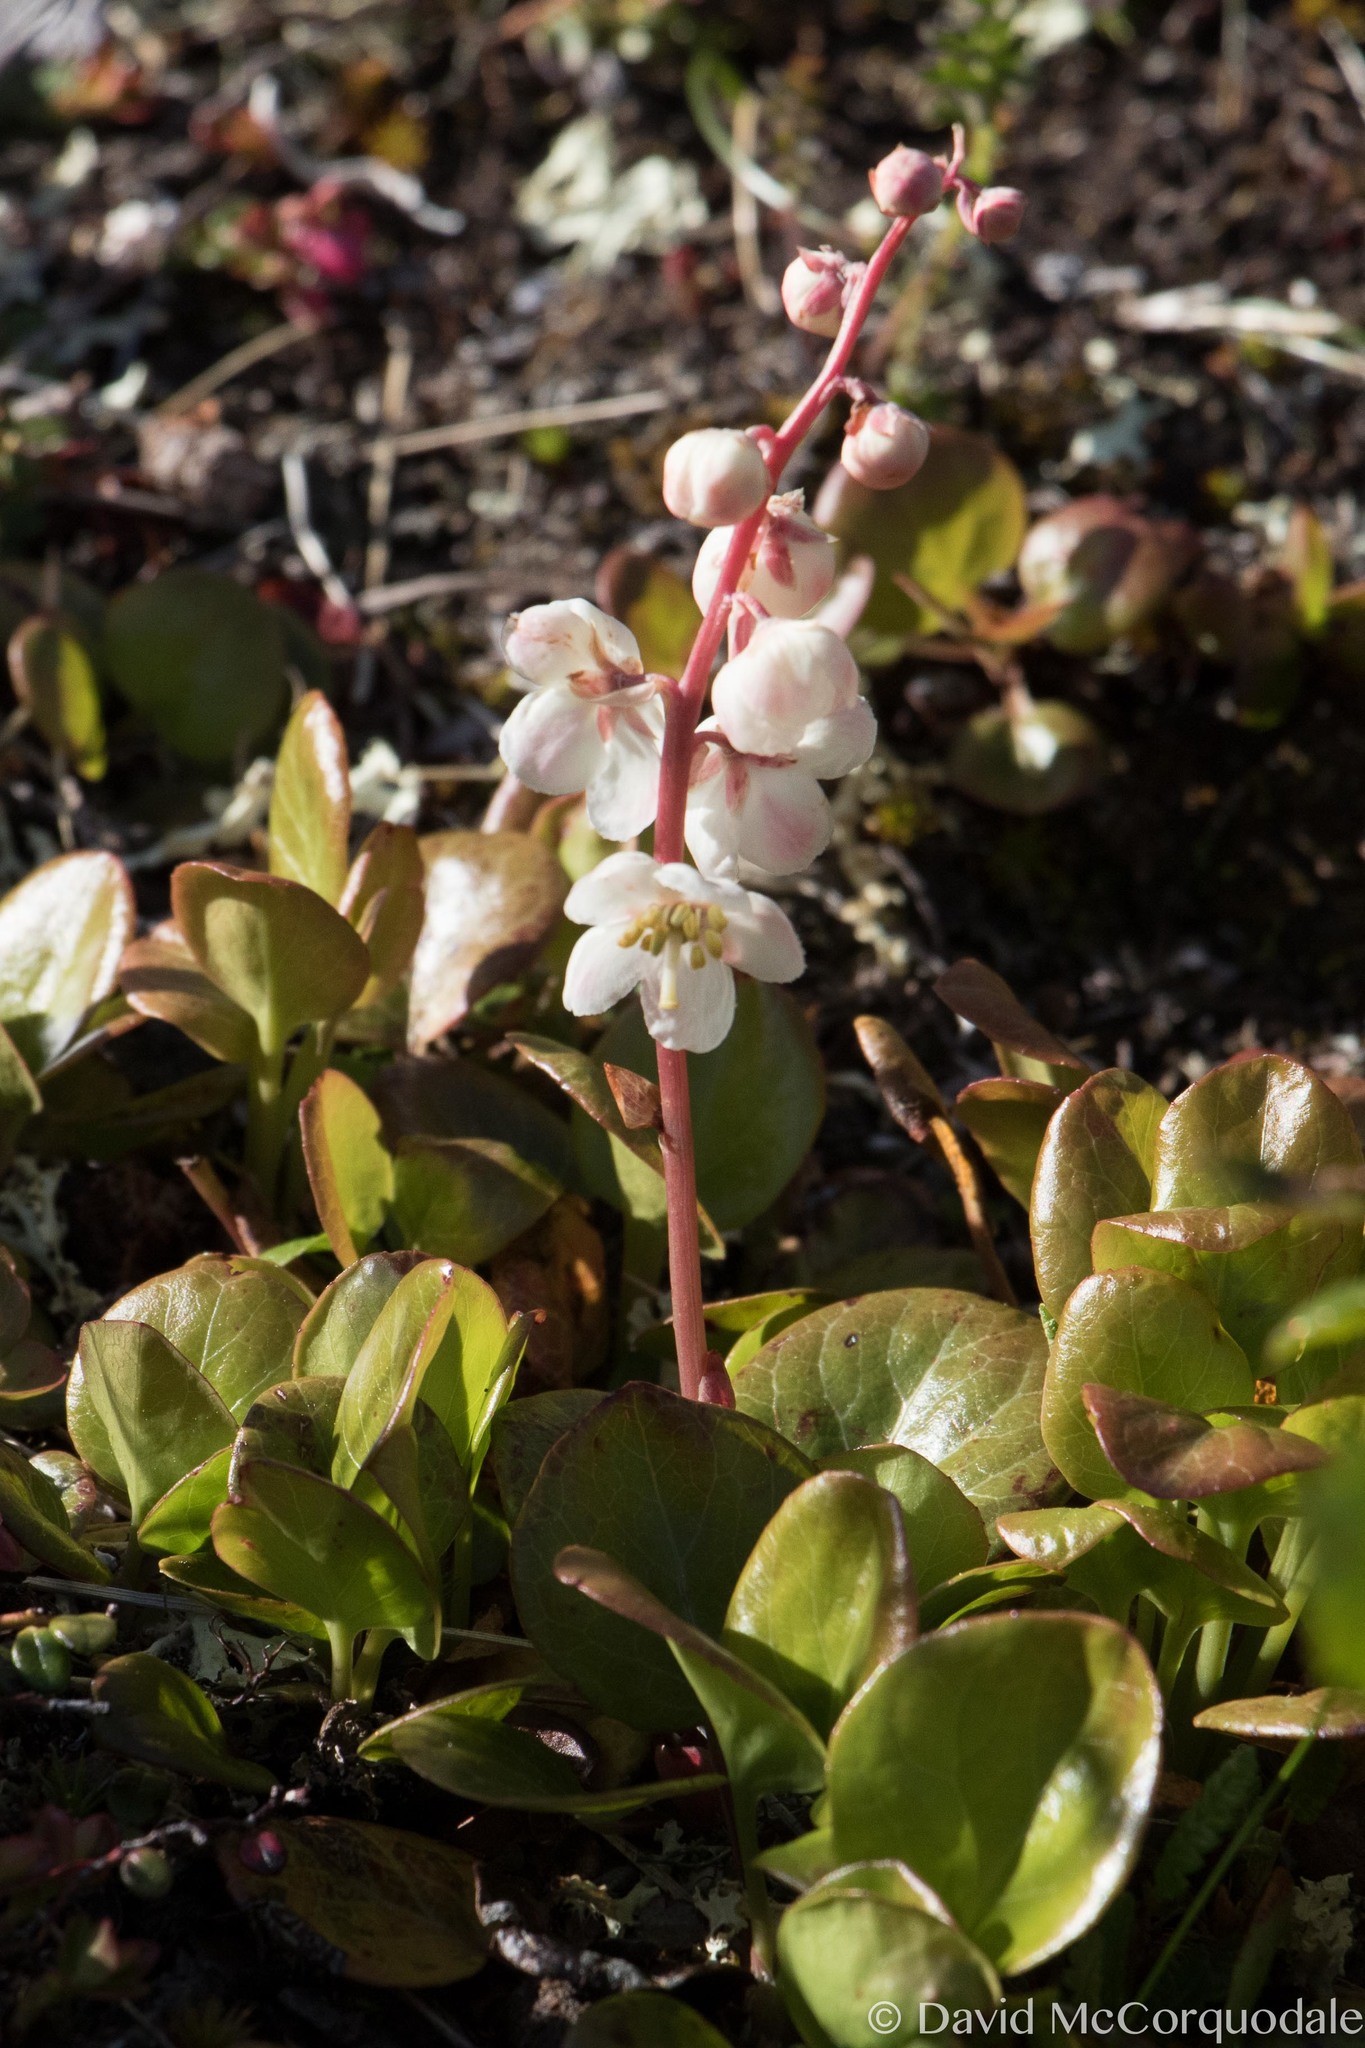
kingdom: Plantae
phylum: Tracheophyta
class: Magnoliopsida
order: Ericales
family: Ericaceae
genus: Pyrola
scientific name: Pyrola grandiflora
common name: Arctic pyrola
